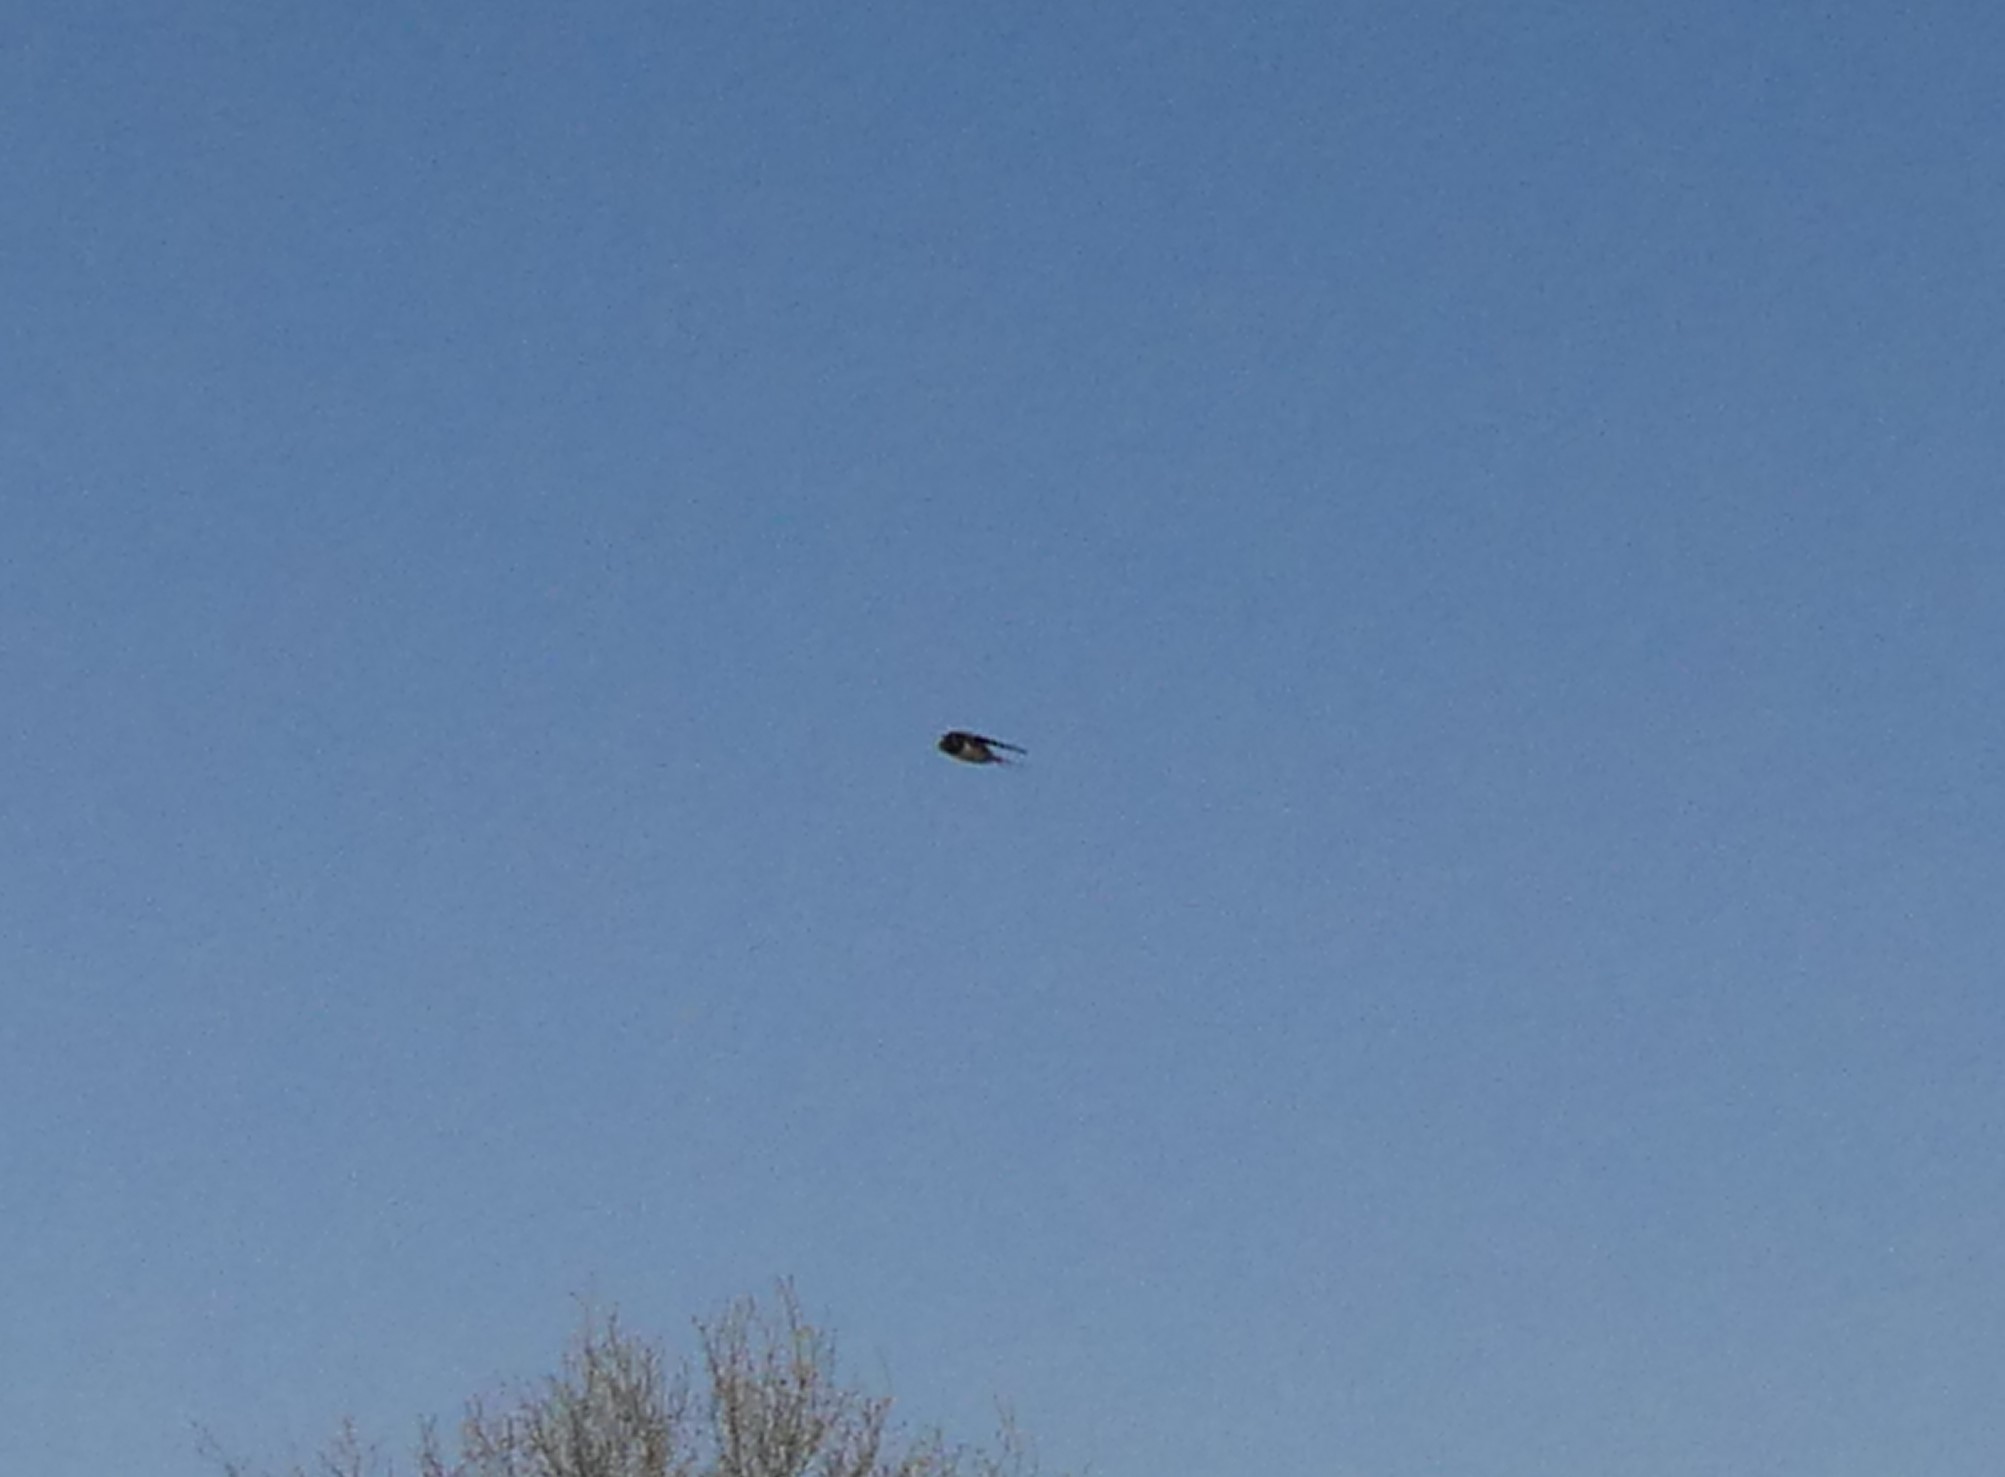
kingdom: Animalia
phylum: Chordata
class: Aves
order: Passeriformes
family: Hirundinidae
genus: Hirundo
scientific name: Hirundo rustica
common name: Barn swallow
